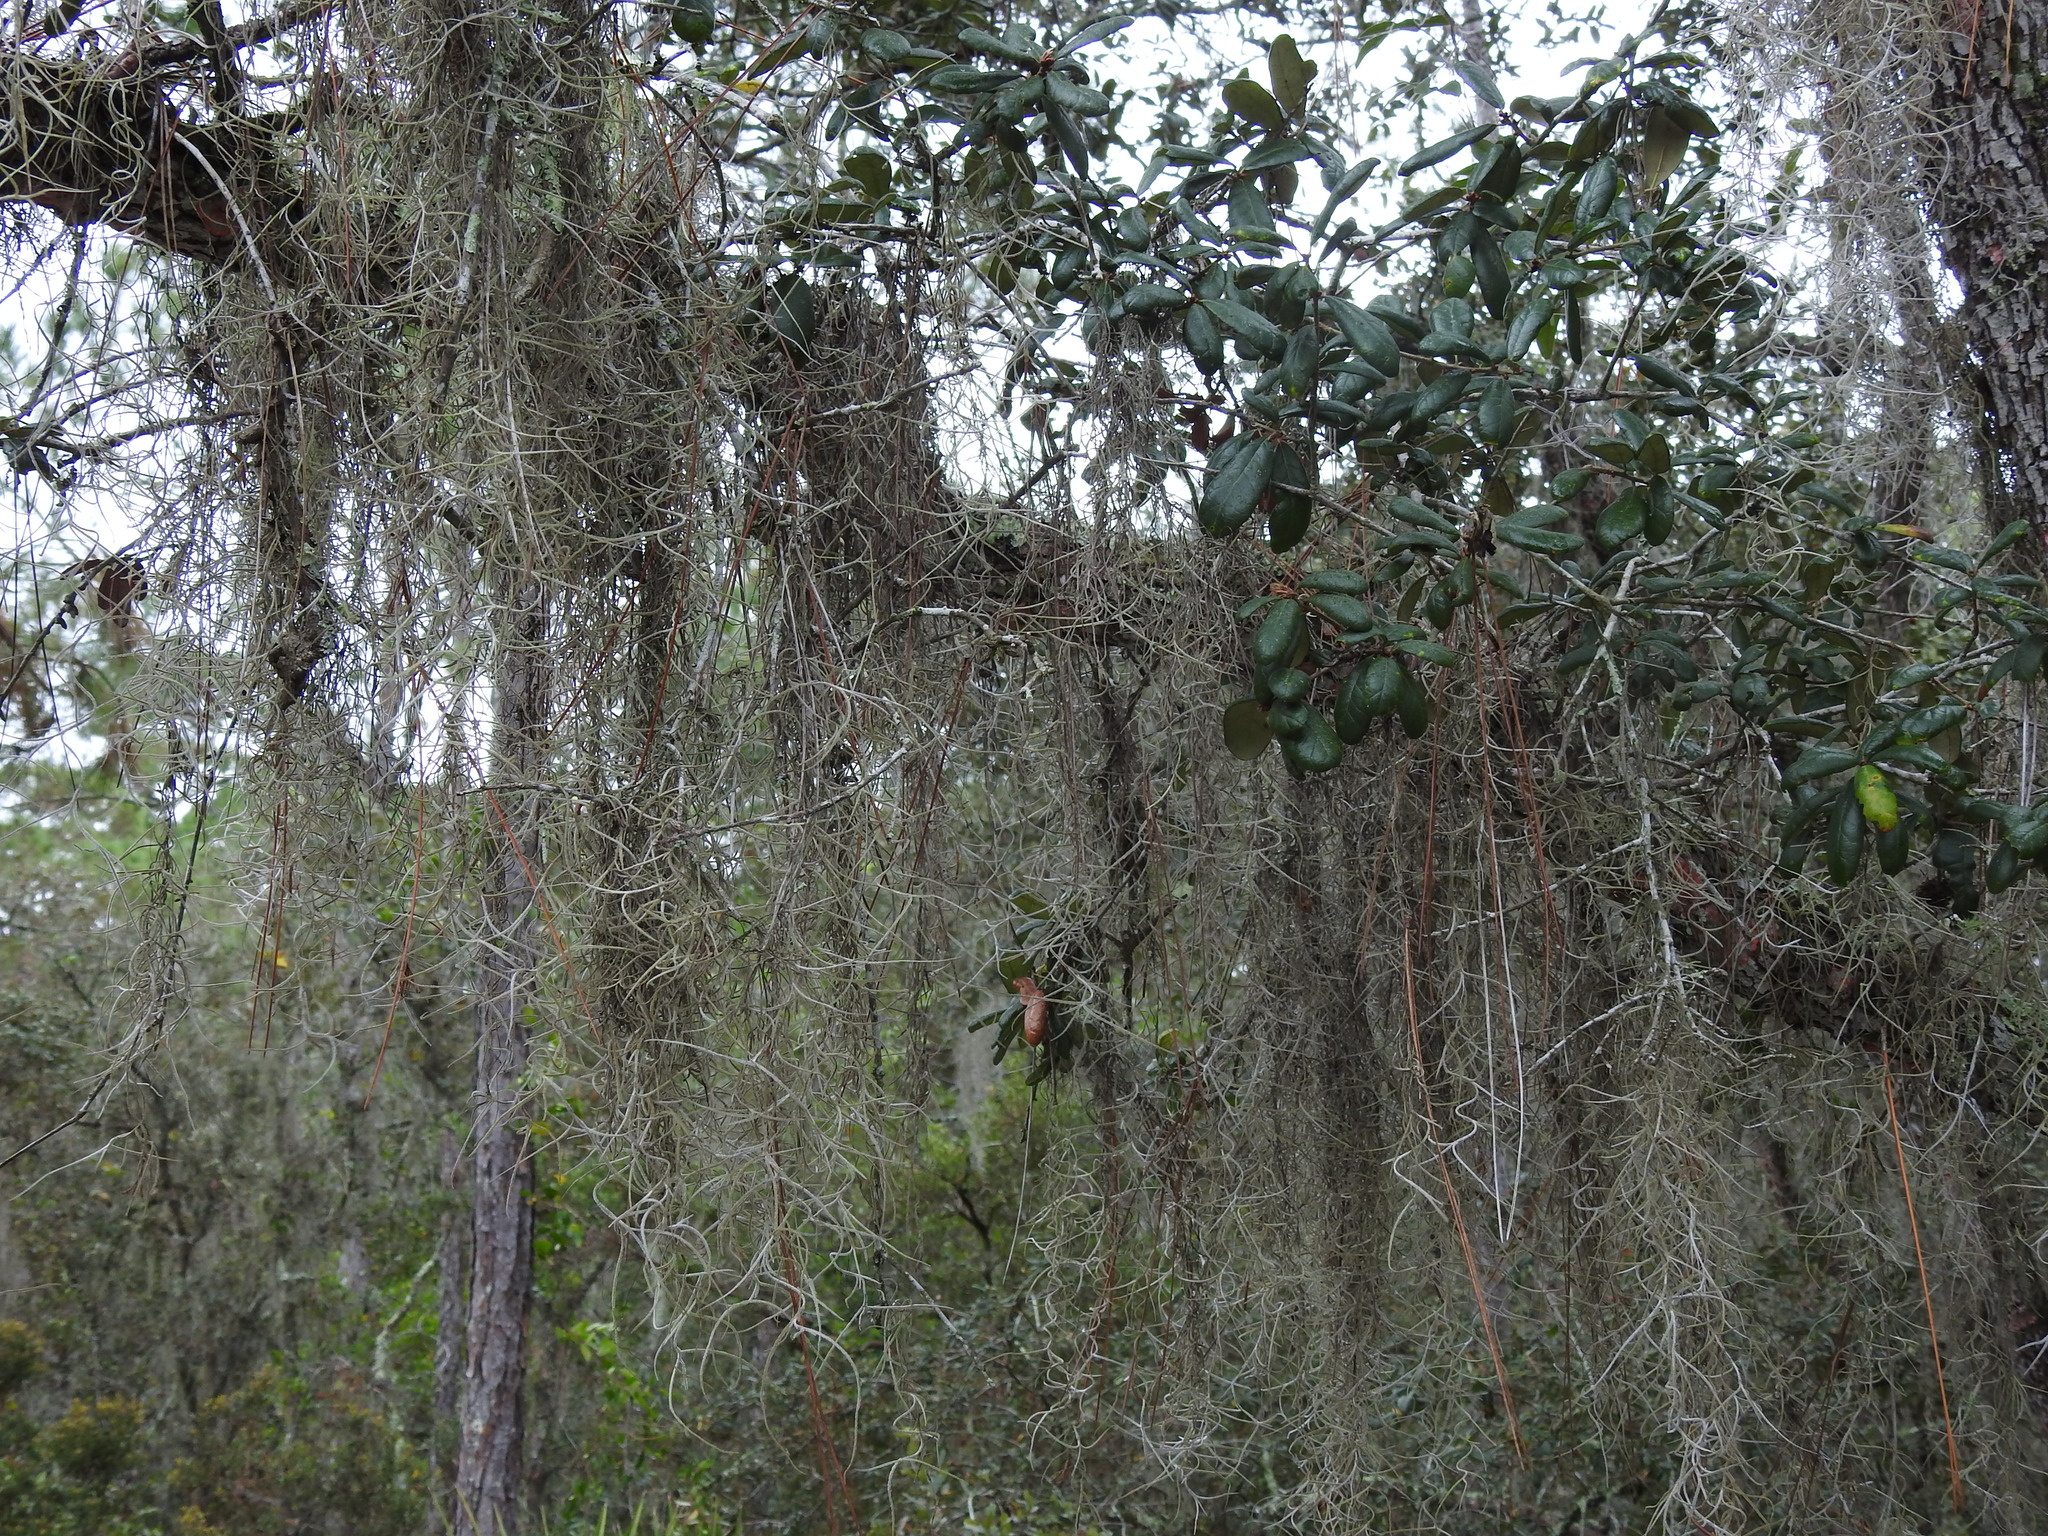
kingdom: Plantae
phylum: Tracheophyta
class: Liliopsida
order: Poales
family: Bromeliaceae
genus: Tillandsia
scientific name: Tillandsia usneoides
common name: Spanish moss
